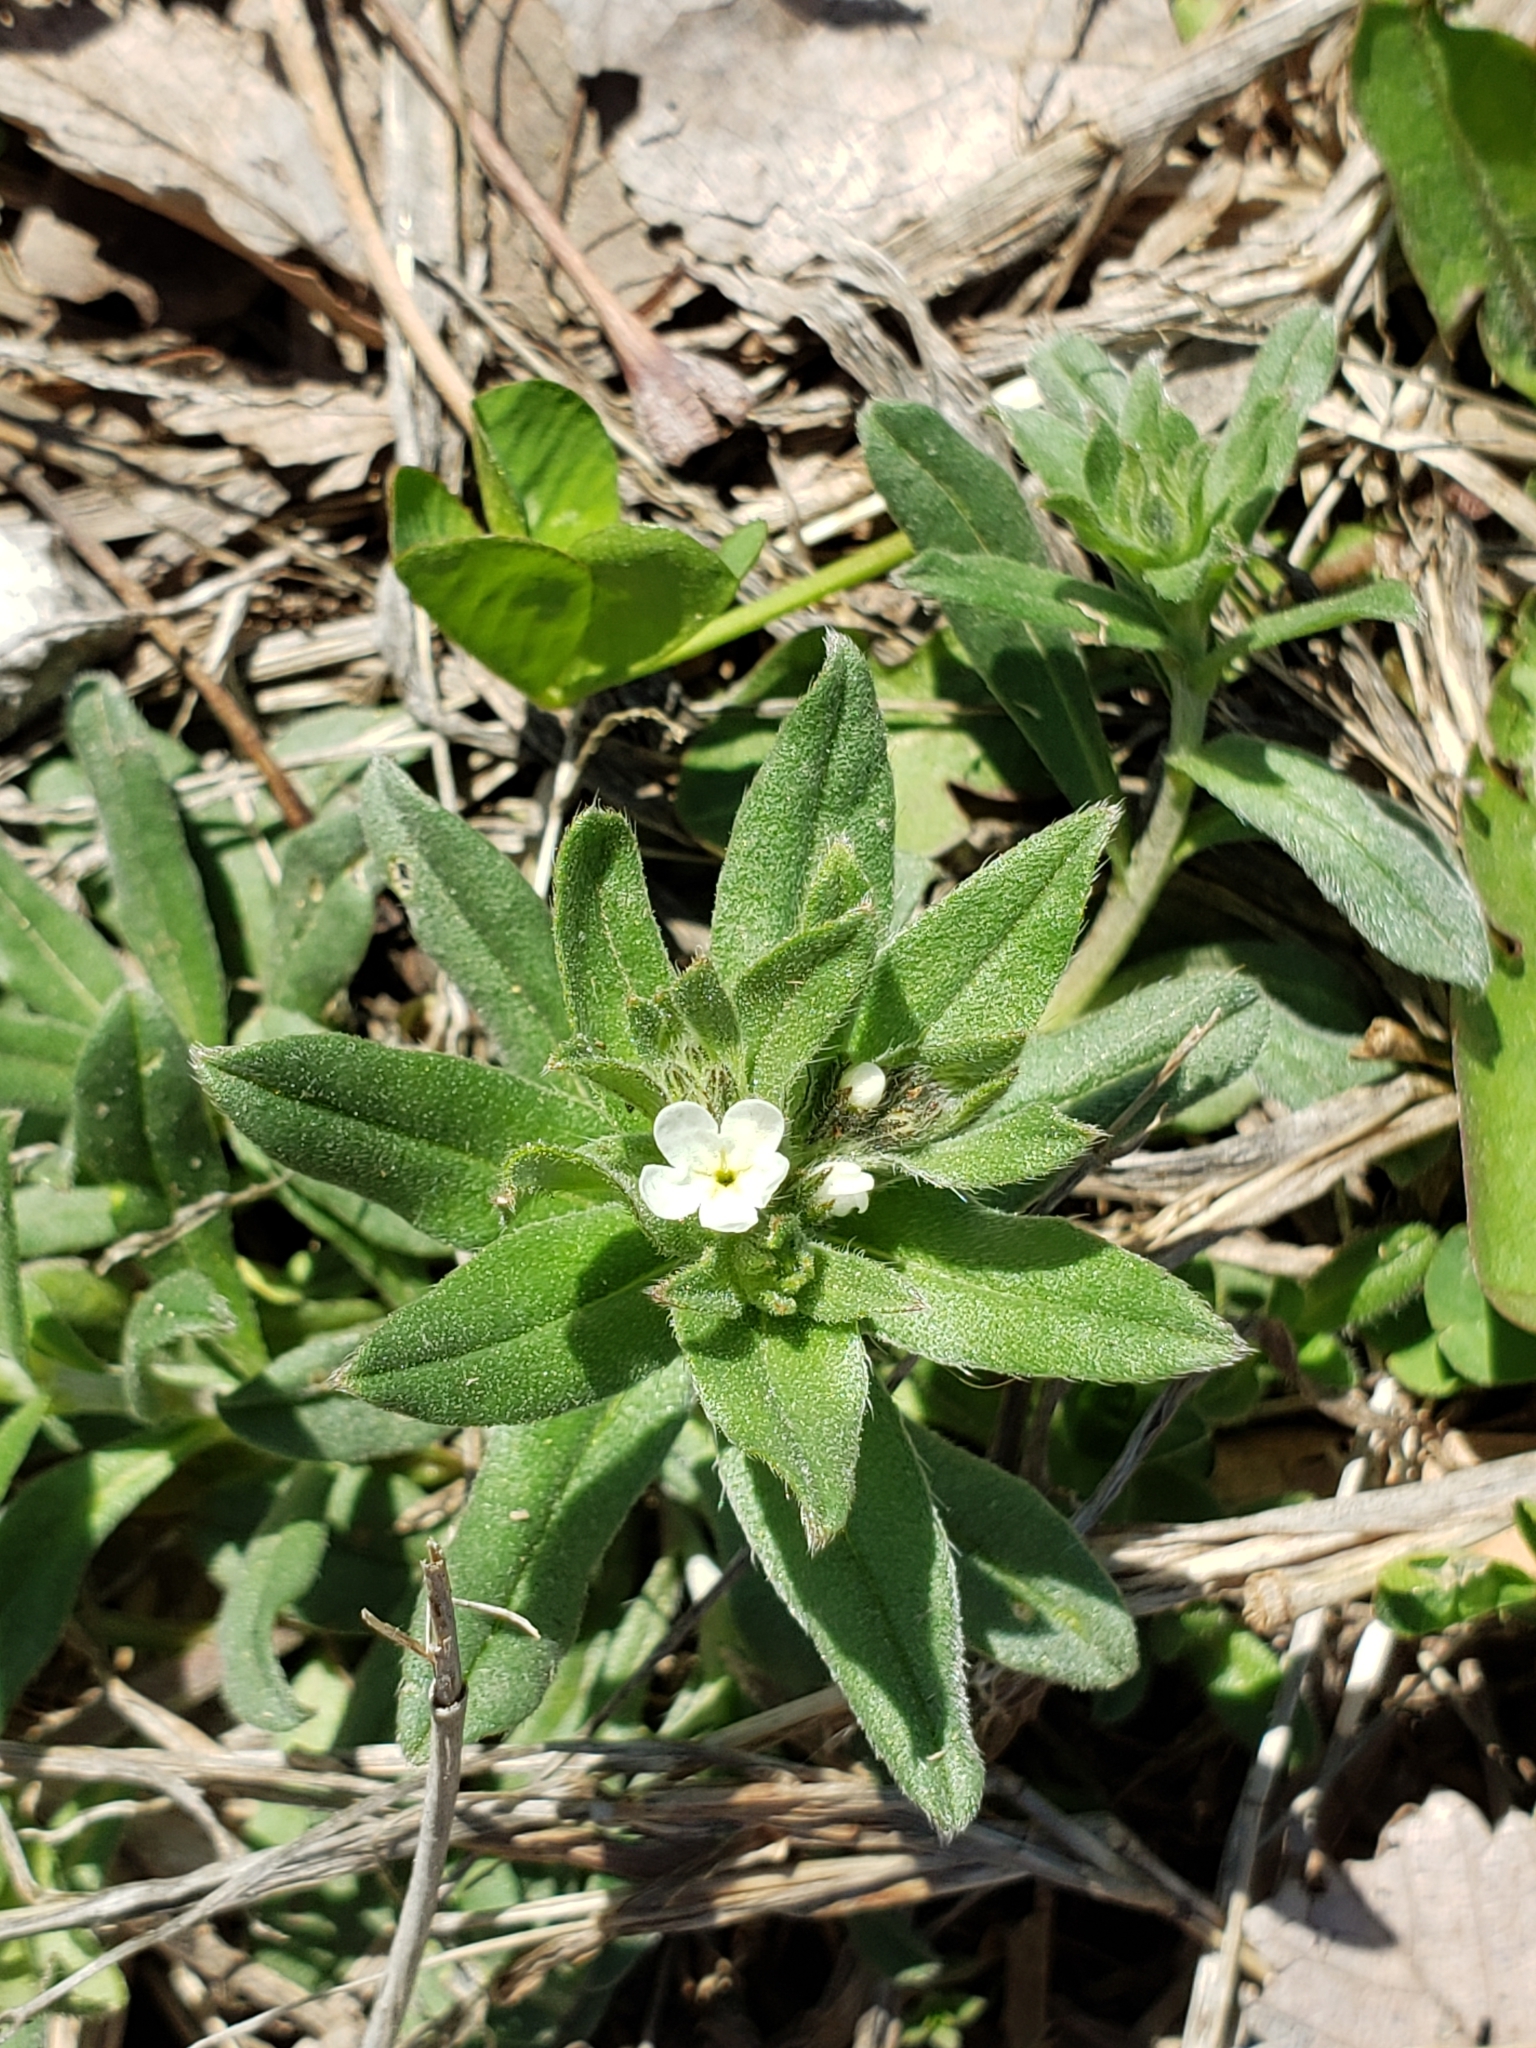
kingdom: Plantae
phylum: Tracheophyta
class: Magnoliopsida
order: Boraginales
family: Boraginaceae
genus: Buglossoides
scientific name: Buglossoides arvensis
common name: Corn gromwell
